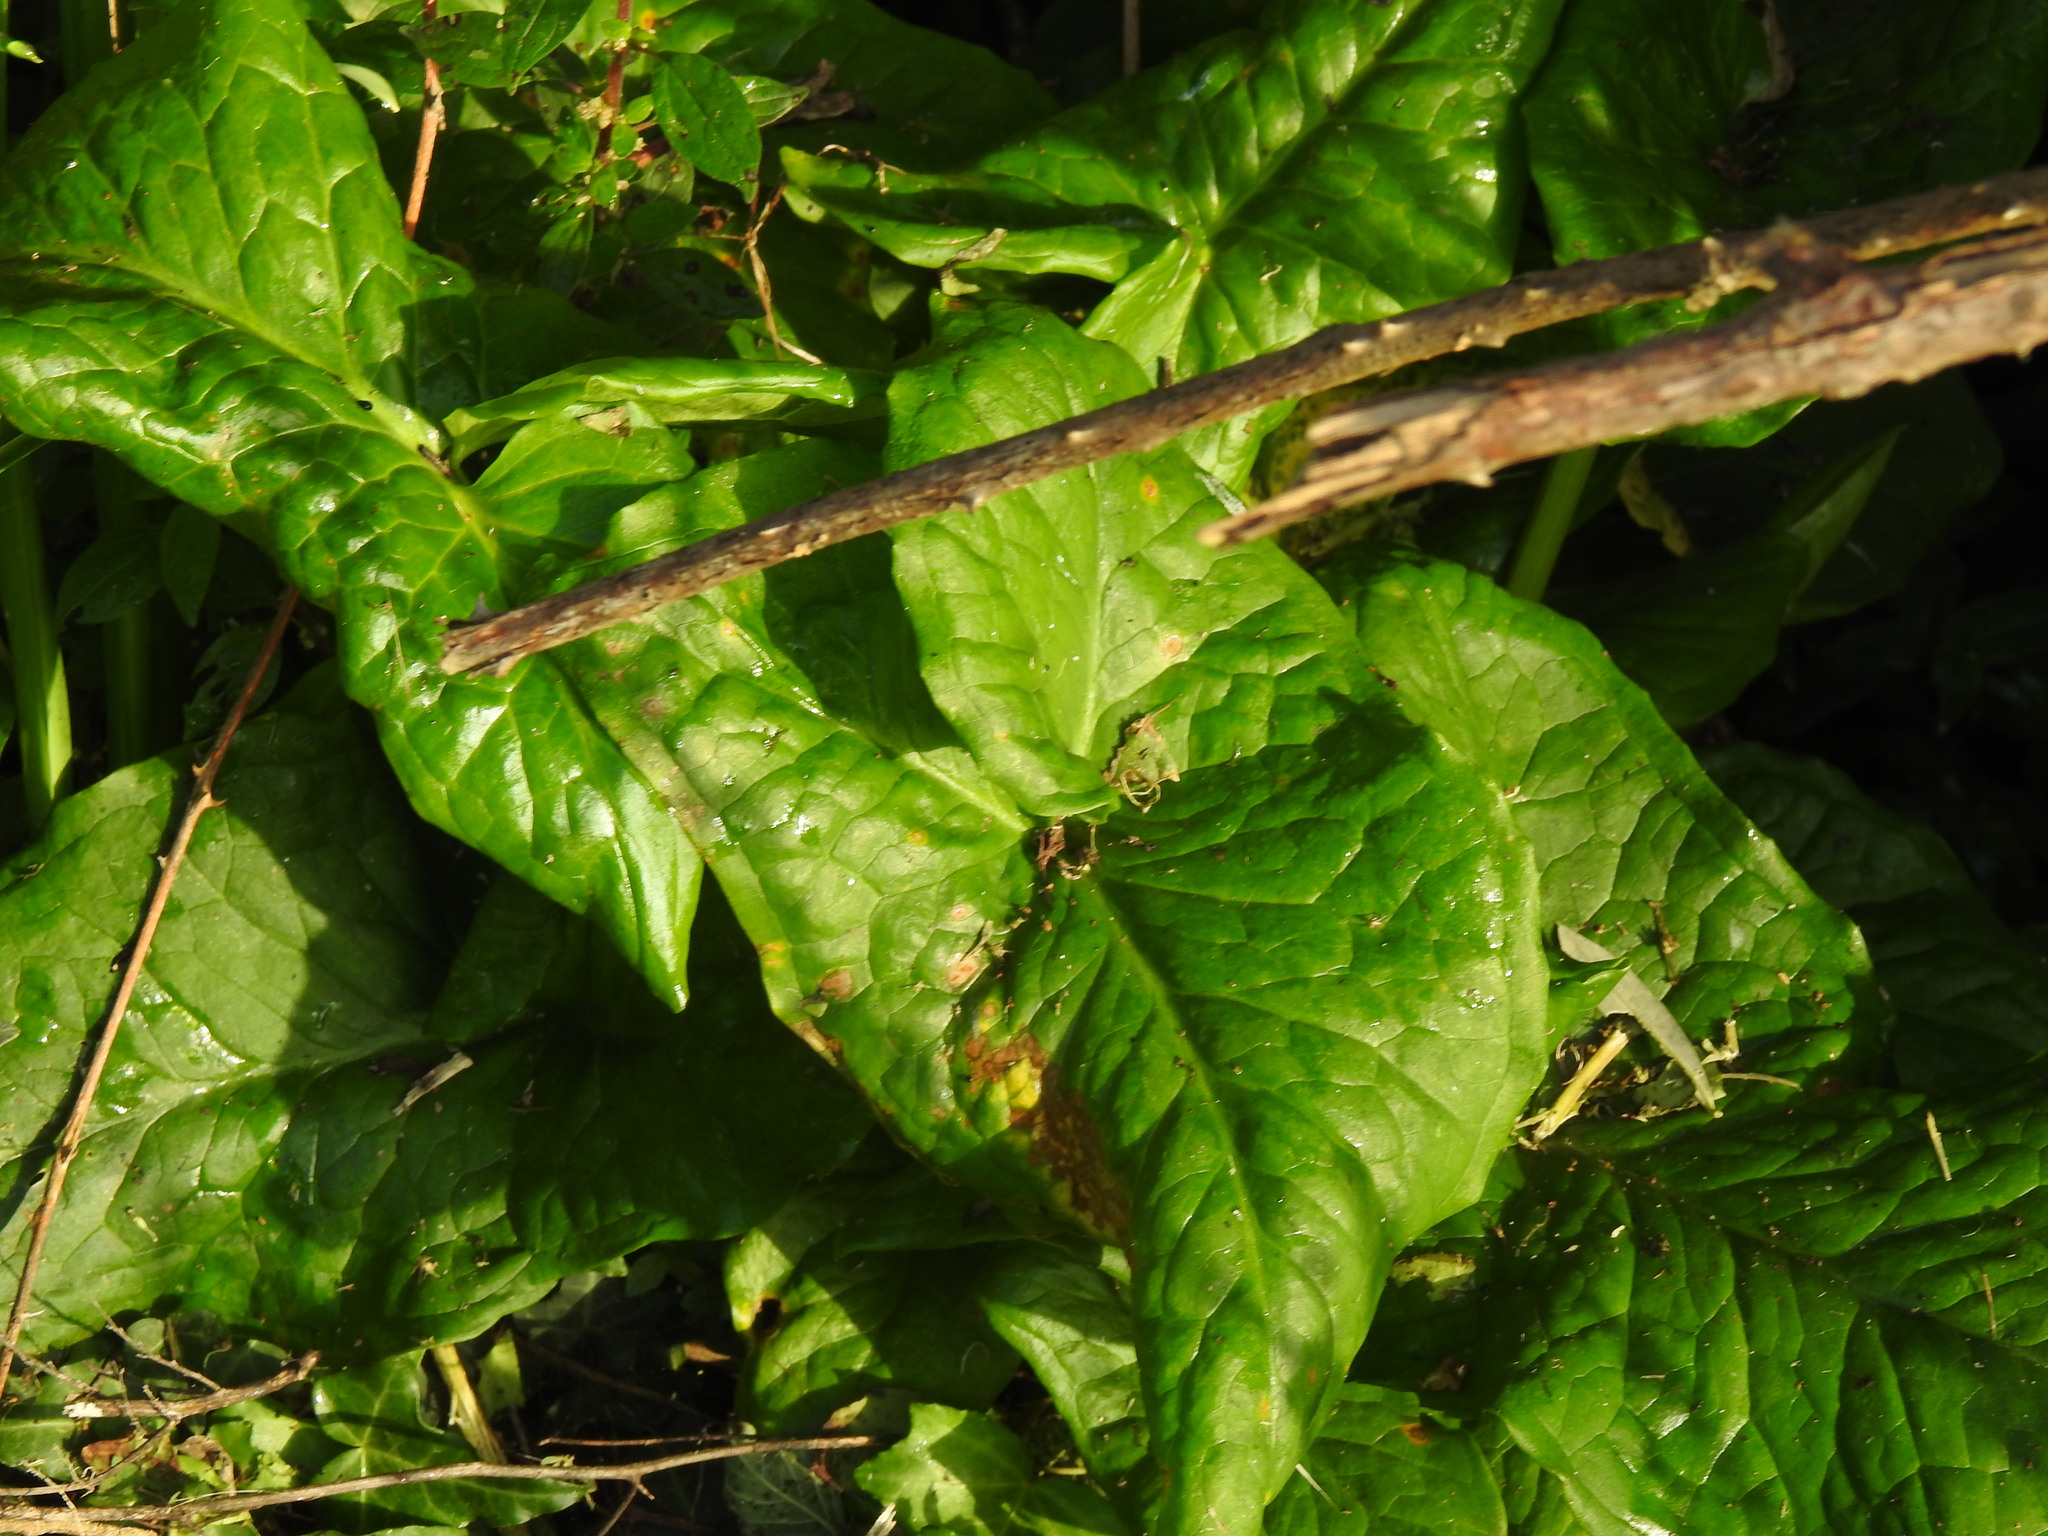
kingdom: Plantae
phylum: Tracheophyta
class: Liliopsida
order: Alismatales
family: Araceae
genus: Arum
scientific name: Arum italicum
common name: Italian lords-and-ladies
